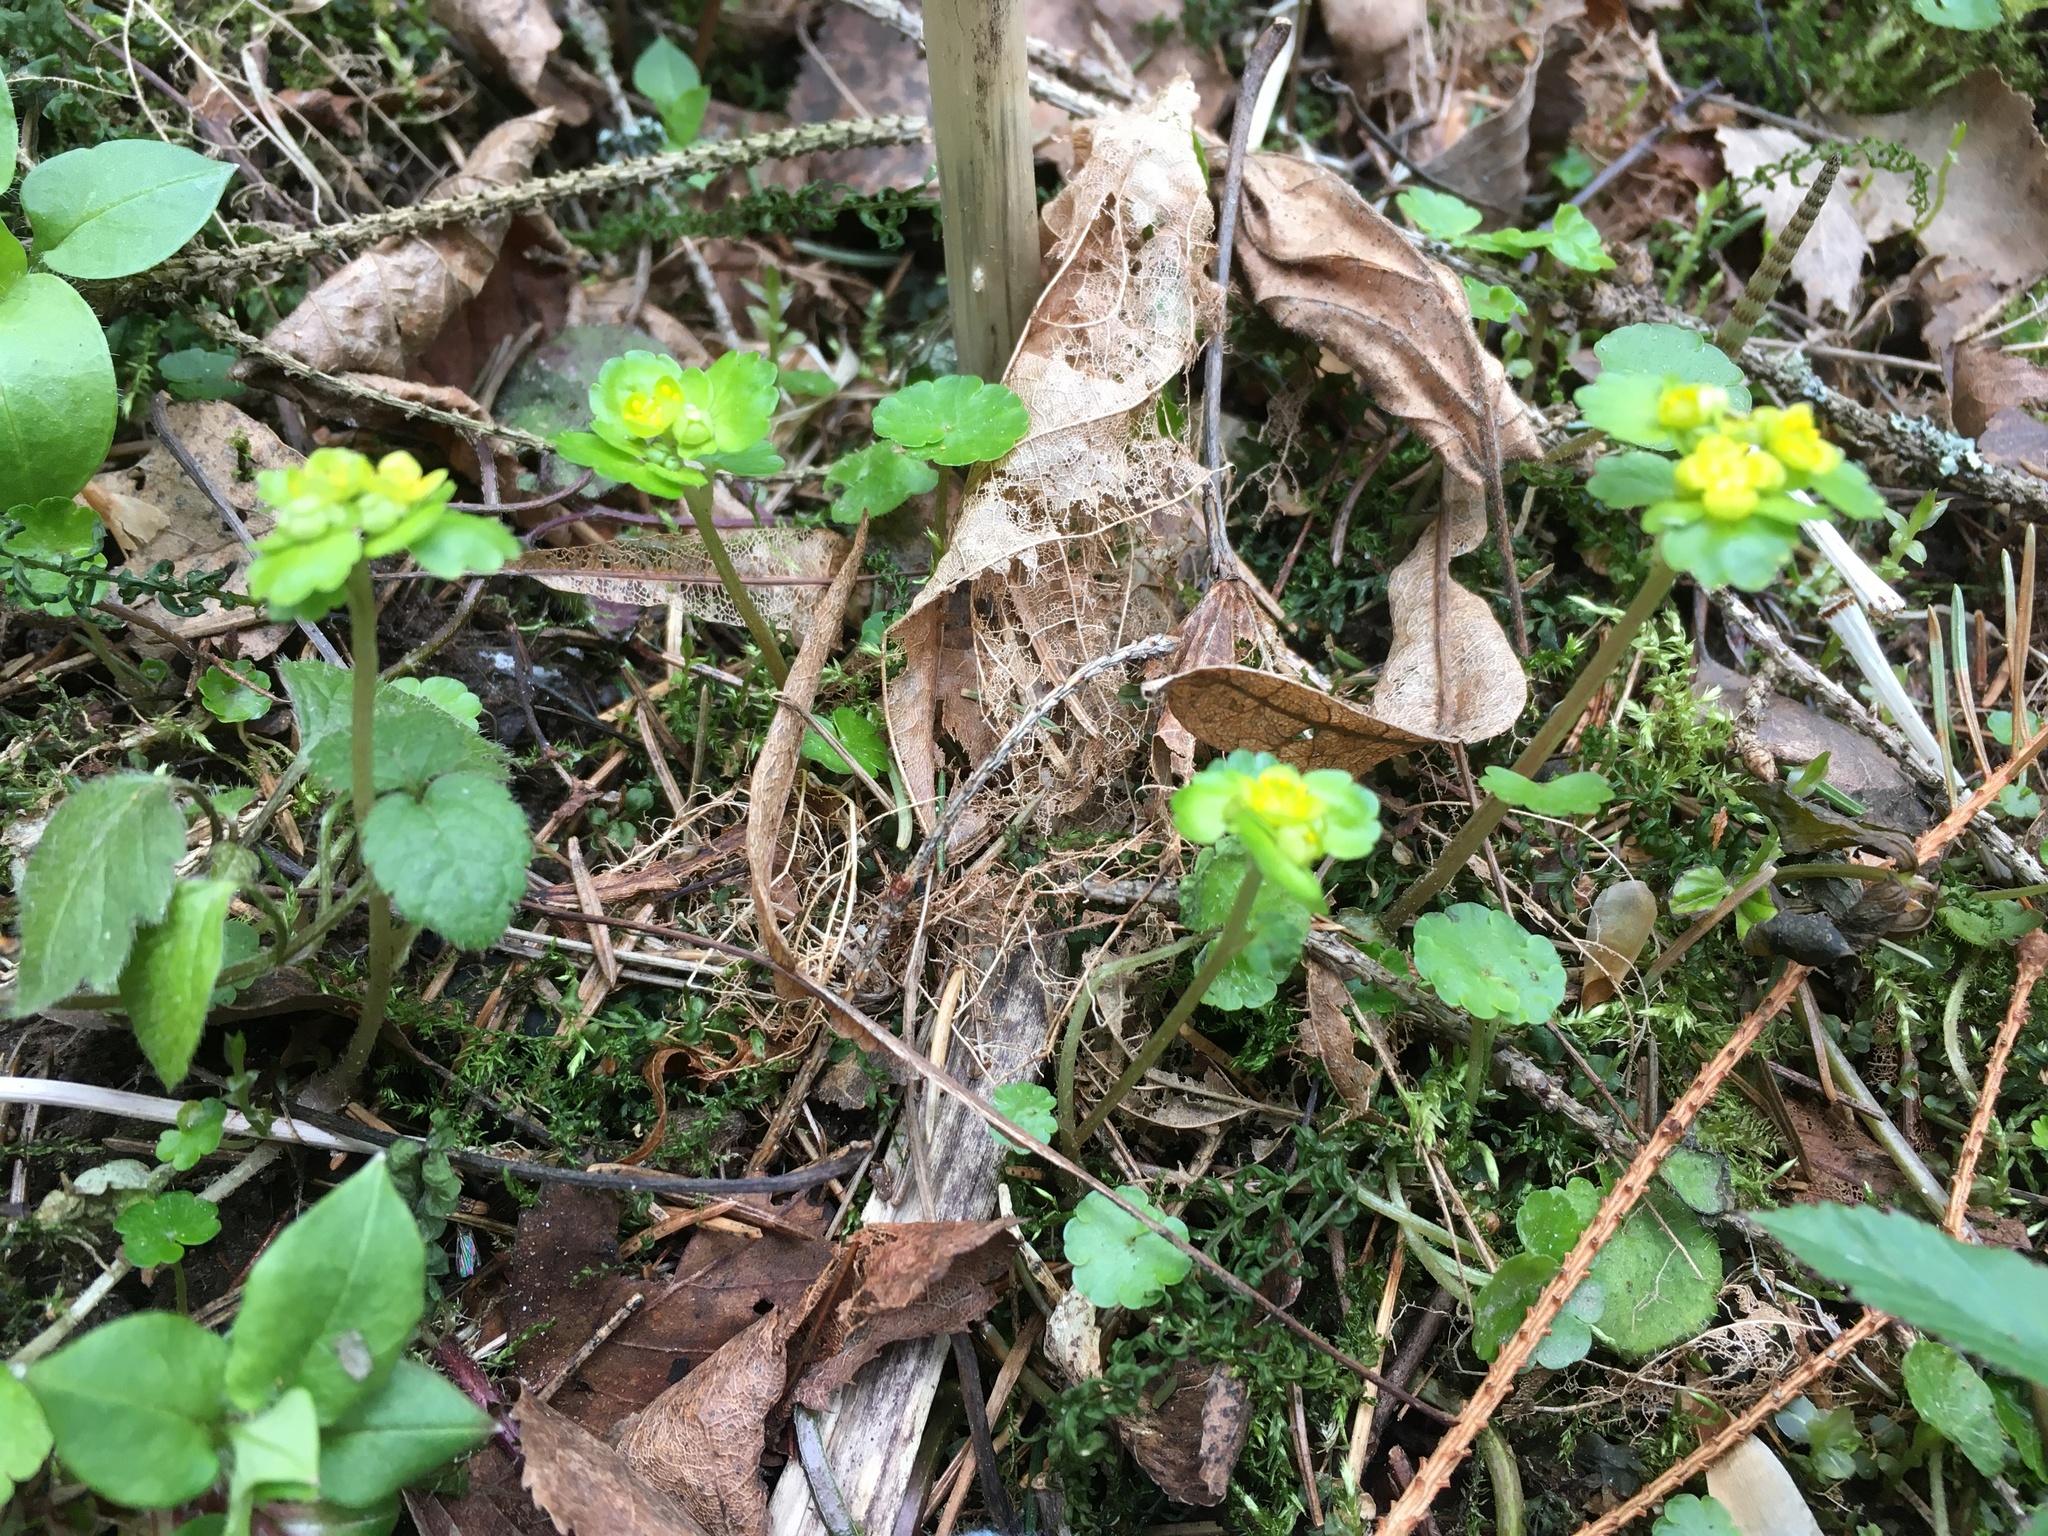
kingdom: Plantae
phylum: Tracheophyta
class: Magnoliopsida
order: Saxifragales
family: Saxifragaceae
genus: Chrysosplenium
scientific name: Chrysosplenium alternifolium
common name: Alternate-leaved golden-saxifrage
